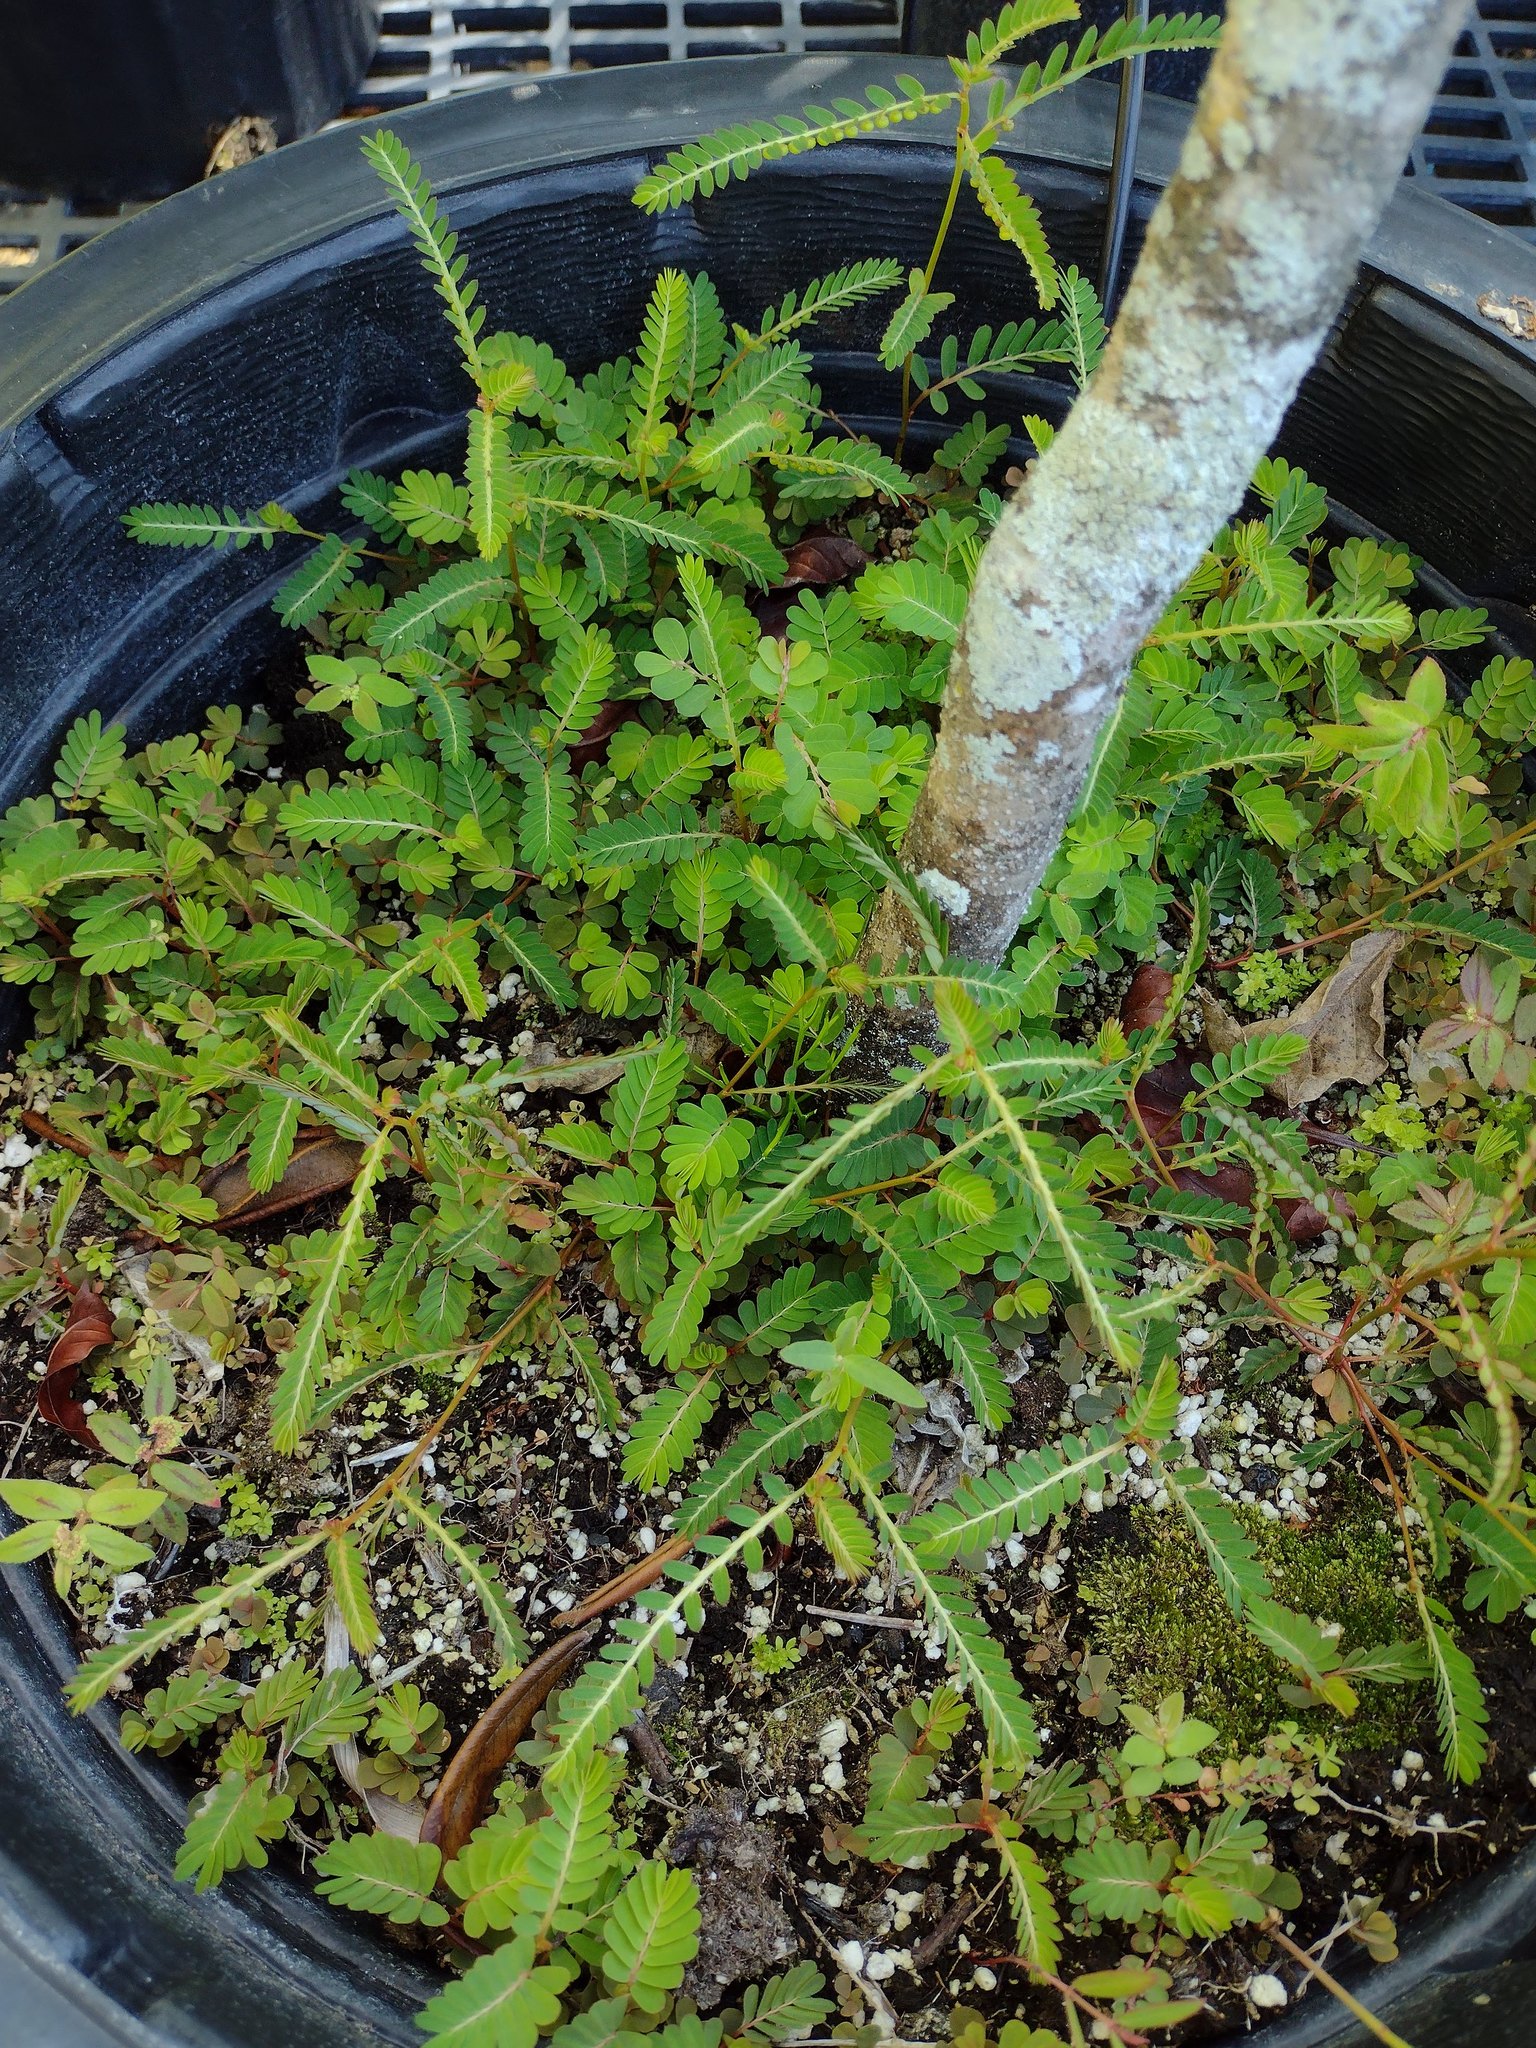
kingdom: Plantae
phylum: Tracheophyta
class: Magnoliopsida
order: Malpighiales
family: Phyllanthaceae
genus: Phyllanthus
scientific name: Phyllanthus urinaria
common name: Chamber bitter
